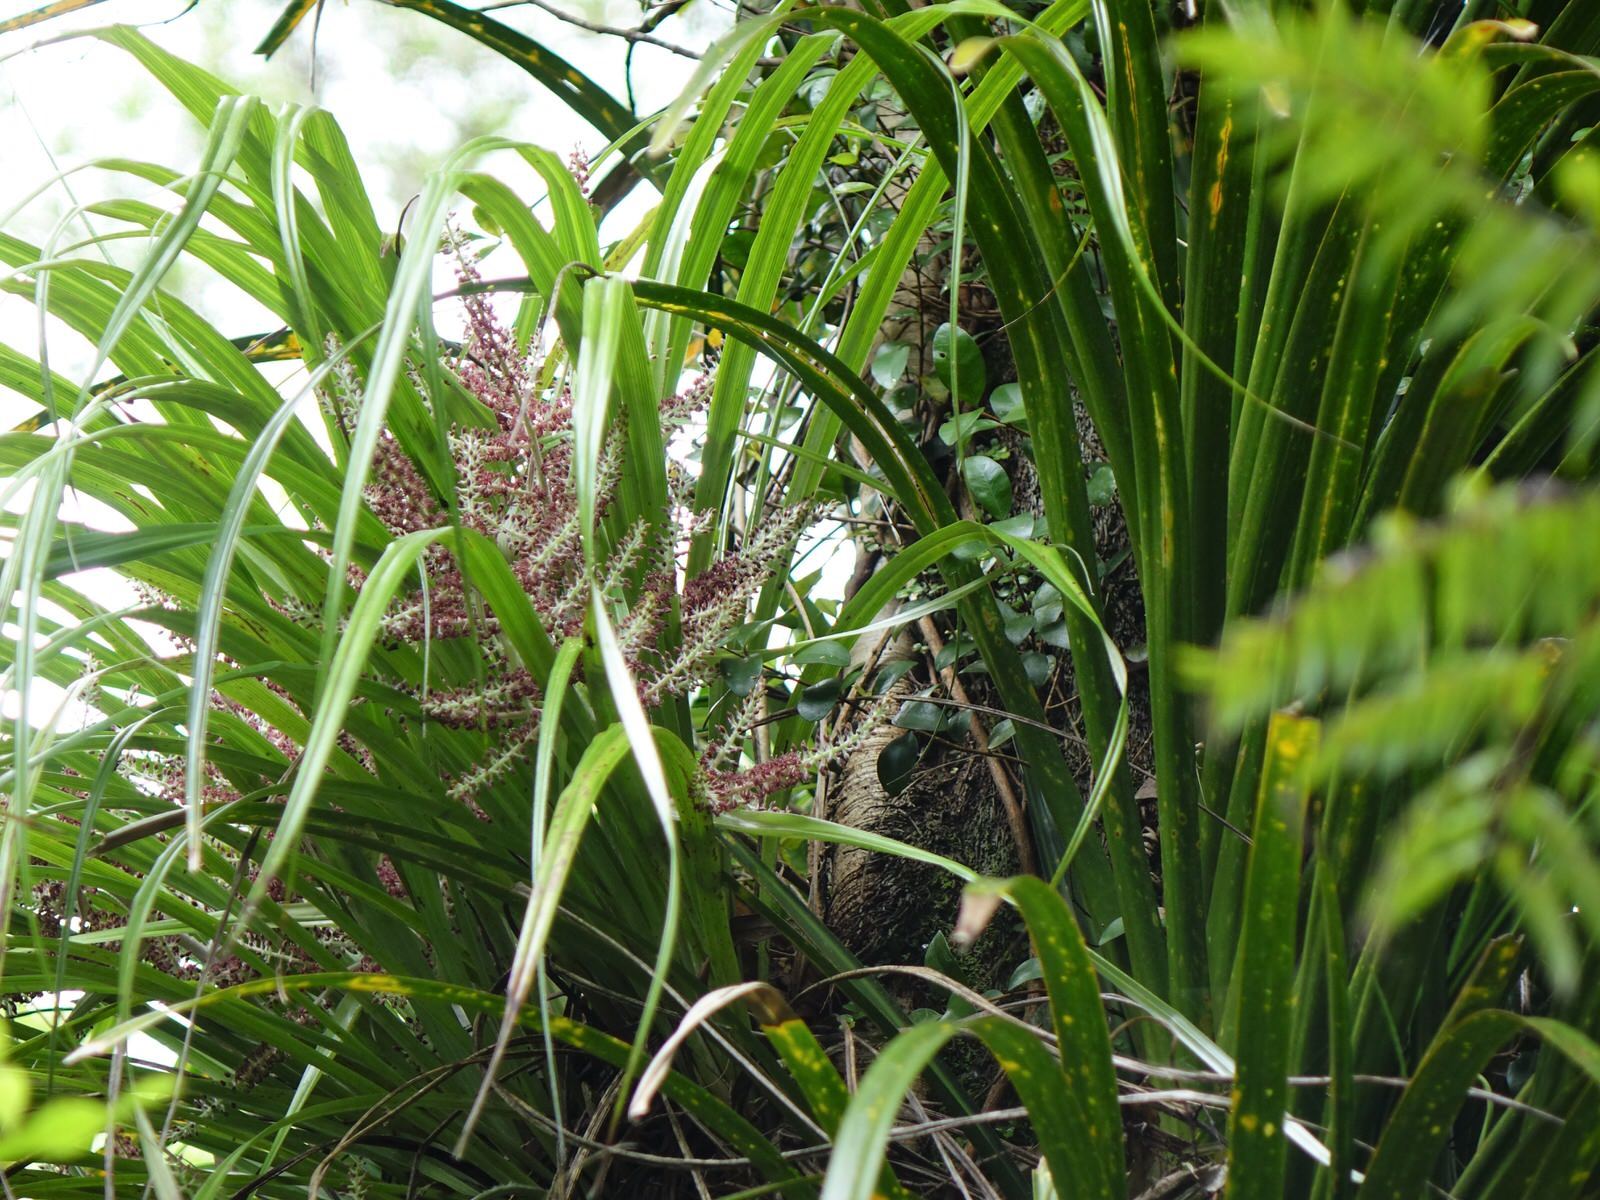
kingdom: Plantae
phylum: Tracheophyta
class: Liliopsida
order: Asparagales
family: Asteliaceae
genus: Astelia
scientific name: Astelia solandri
